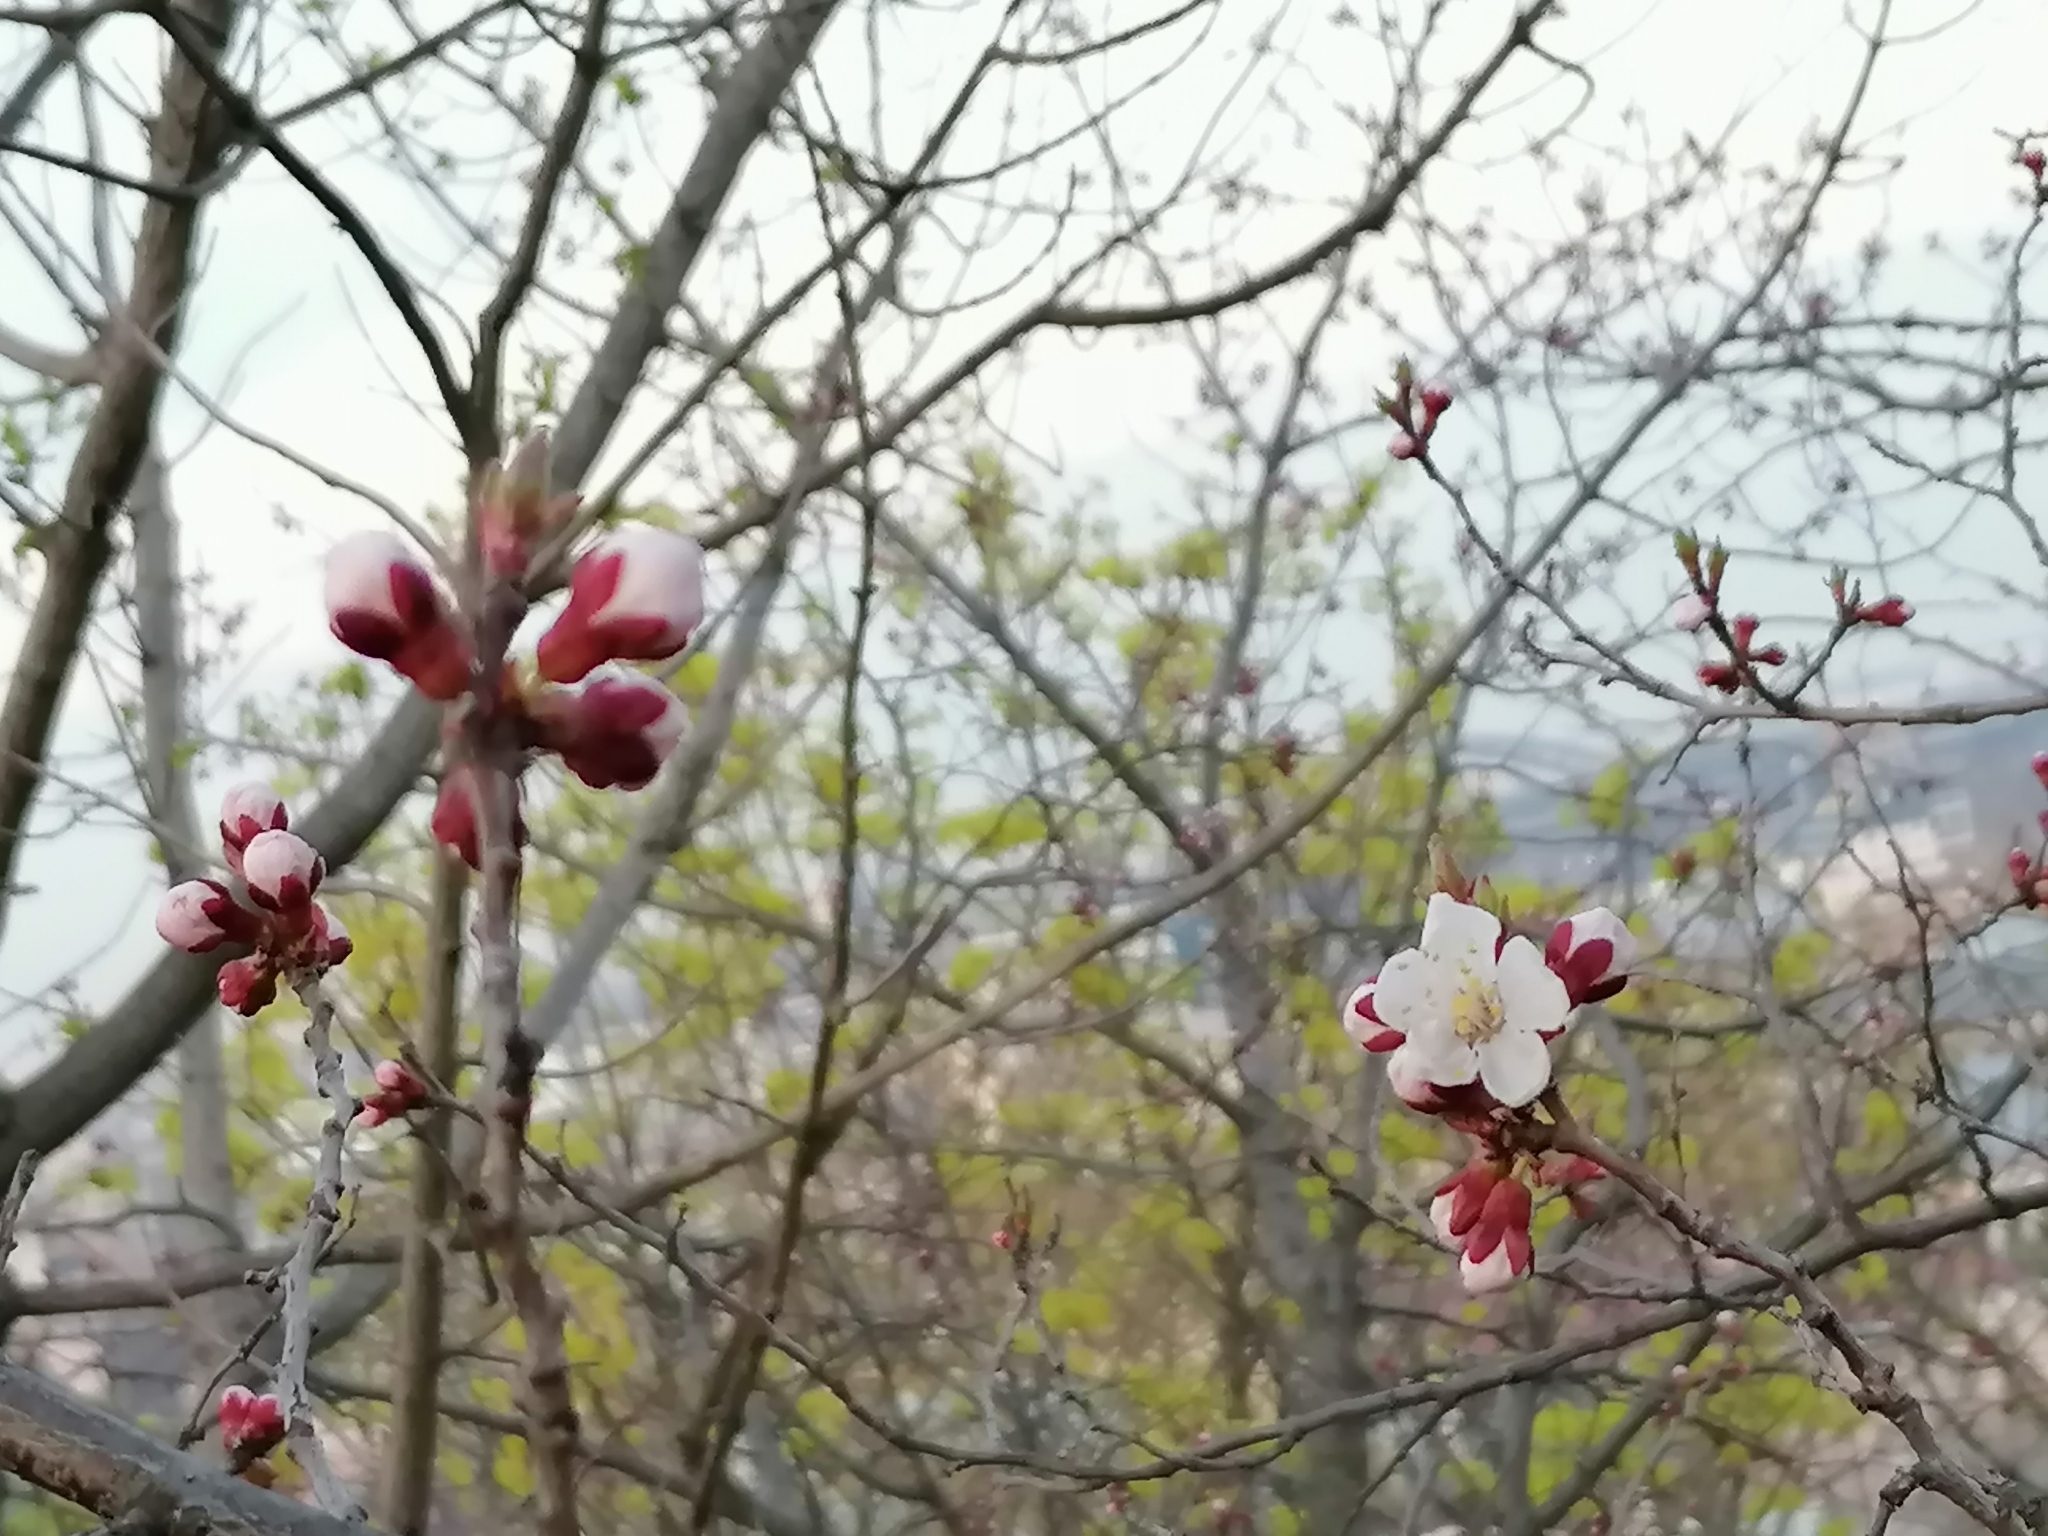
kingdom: Plantae
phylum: Tracheophyta
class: Magnoliopsida
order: Rosales
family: Rosaceae
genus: Prunus
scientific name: Prunus armeniaca
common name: Apricot
